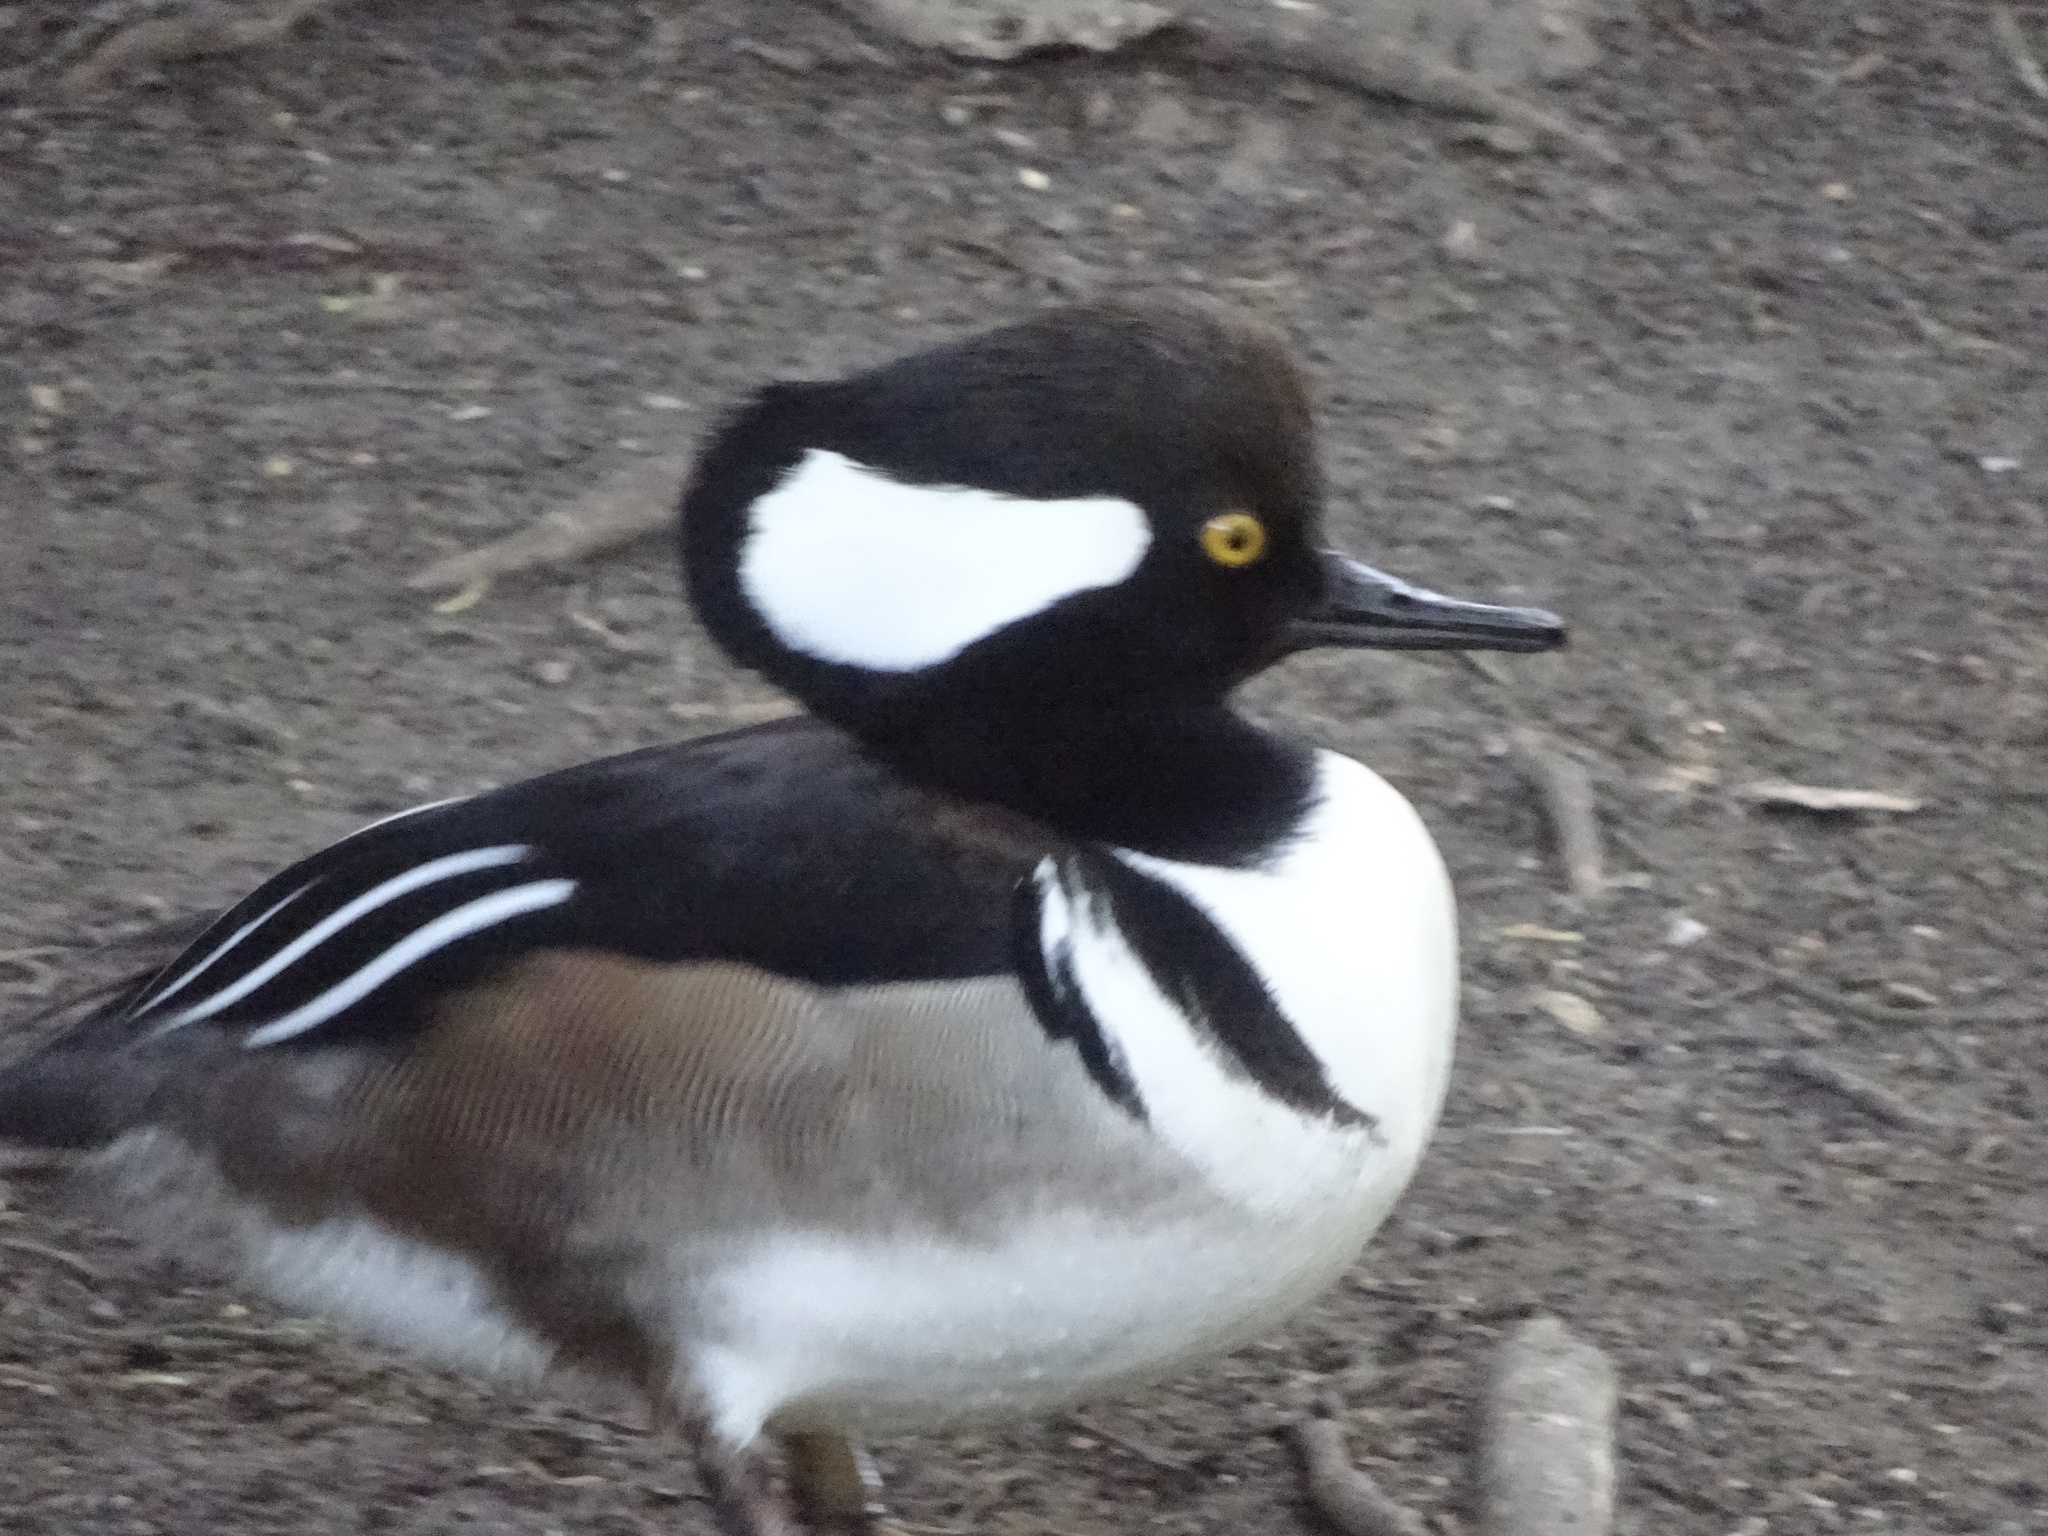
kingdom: Animalia
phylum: Chordata
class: Aves
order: Anseriformes
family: Anatidae
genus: Lophodytes
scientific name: Lophodytes cucullatus
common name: Hooded merganser
